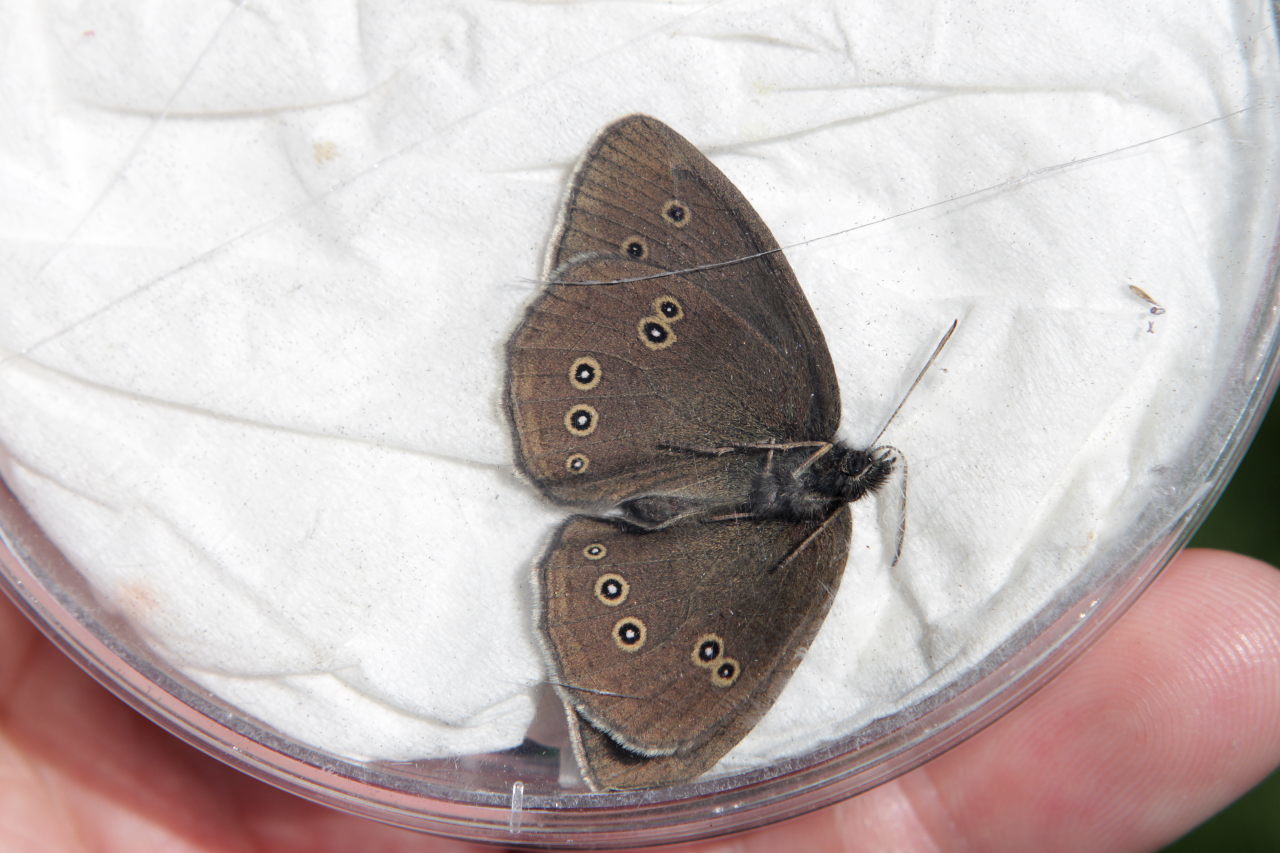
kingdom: Animalia
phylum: Arthropoda
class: Insecta
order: Lepidoptera
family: Nymphalidae
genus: Aphantopus
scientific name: Aphantopus hyperantus
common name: Ringlet
